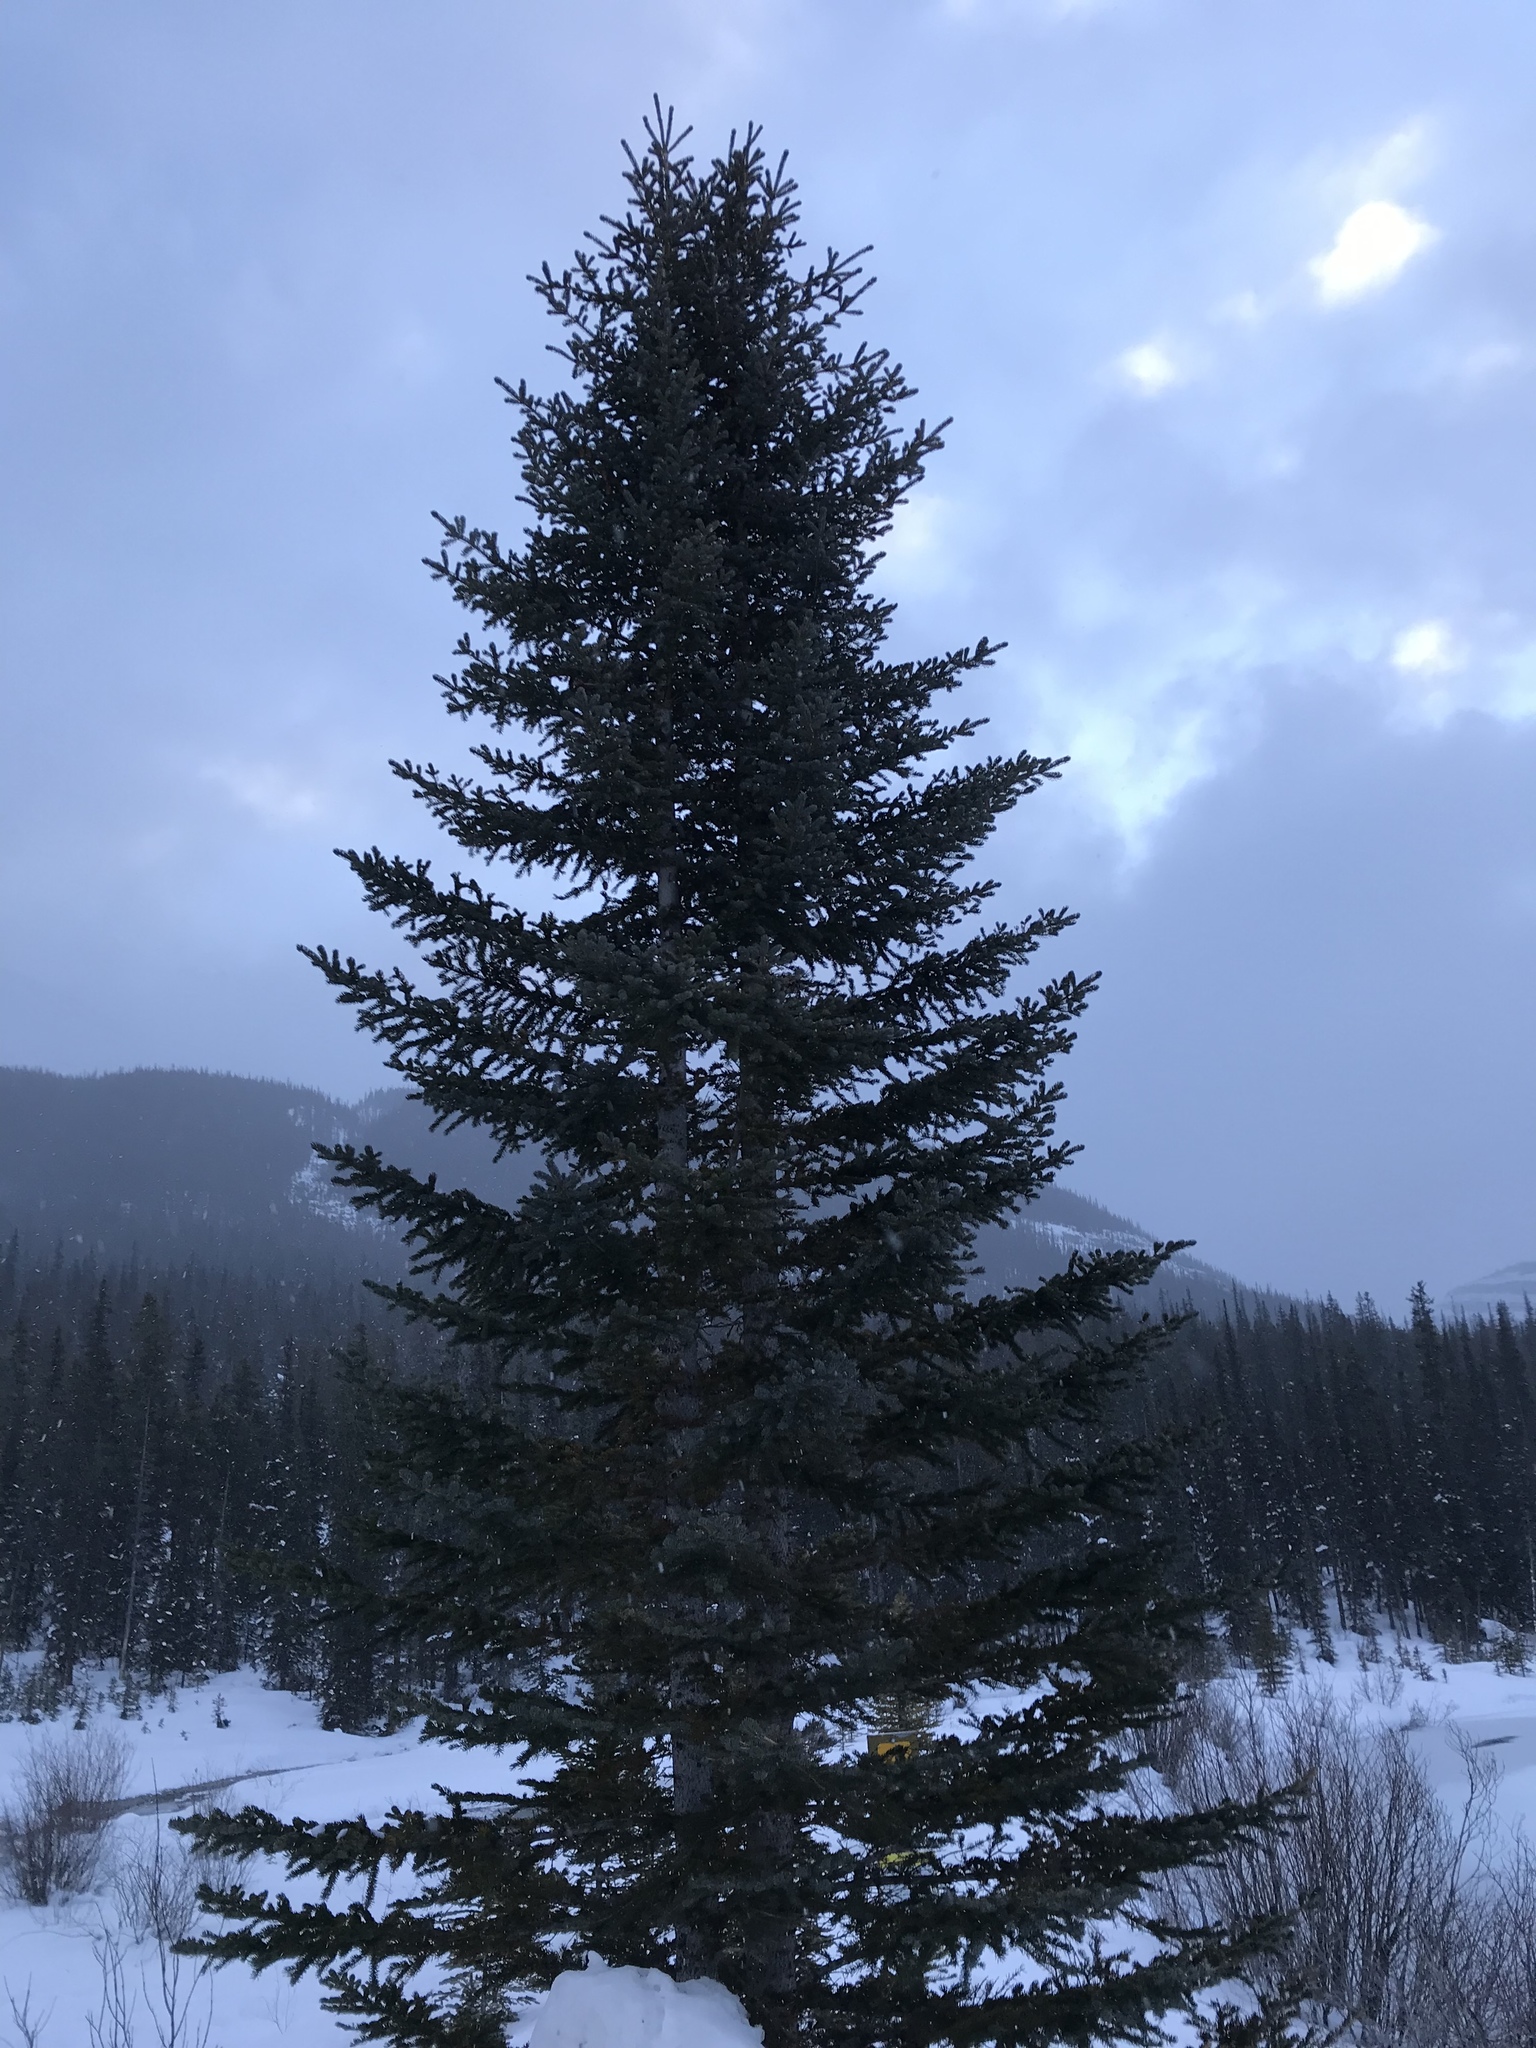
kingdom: Plantae
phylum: Tracheophyta
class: Pinopsida
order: Pinales
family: Pinaceae
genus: Picea
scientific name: Picea engelmannii
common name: Engelmann spruce
